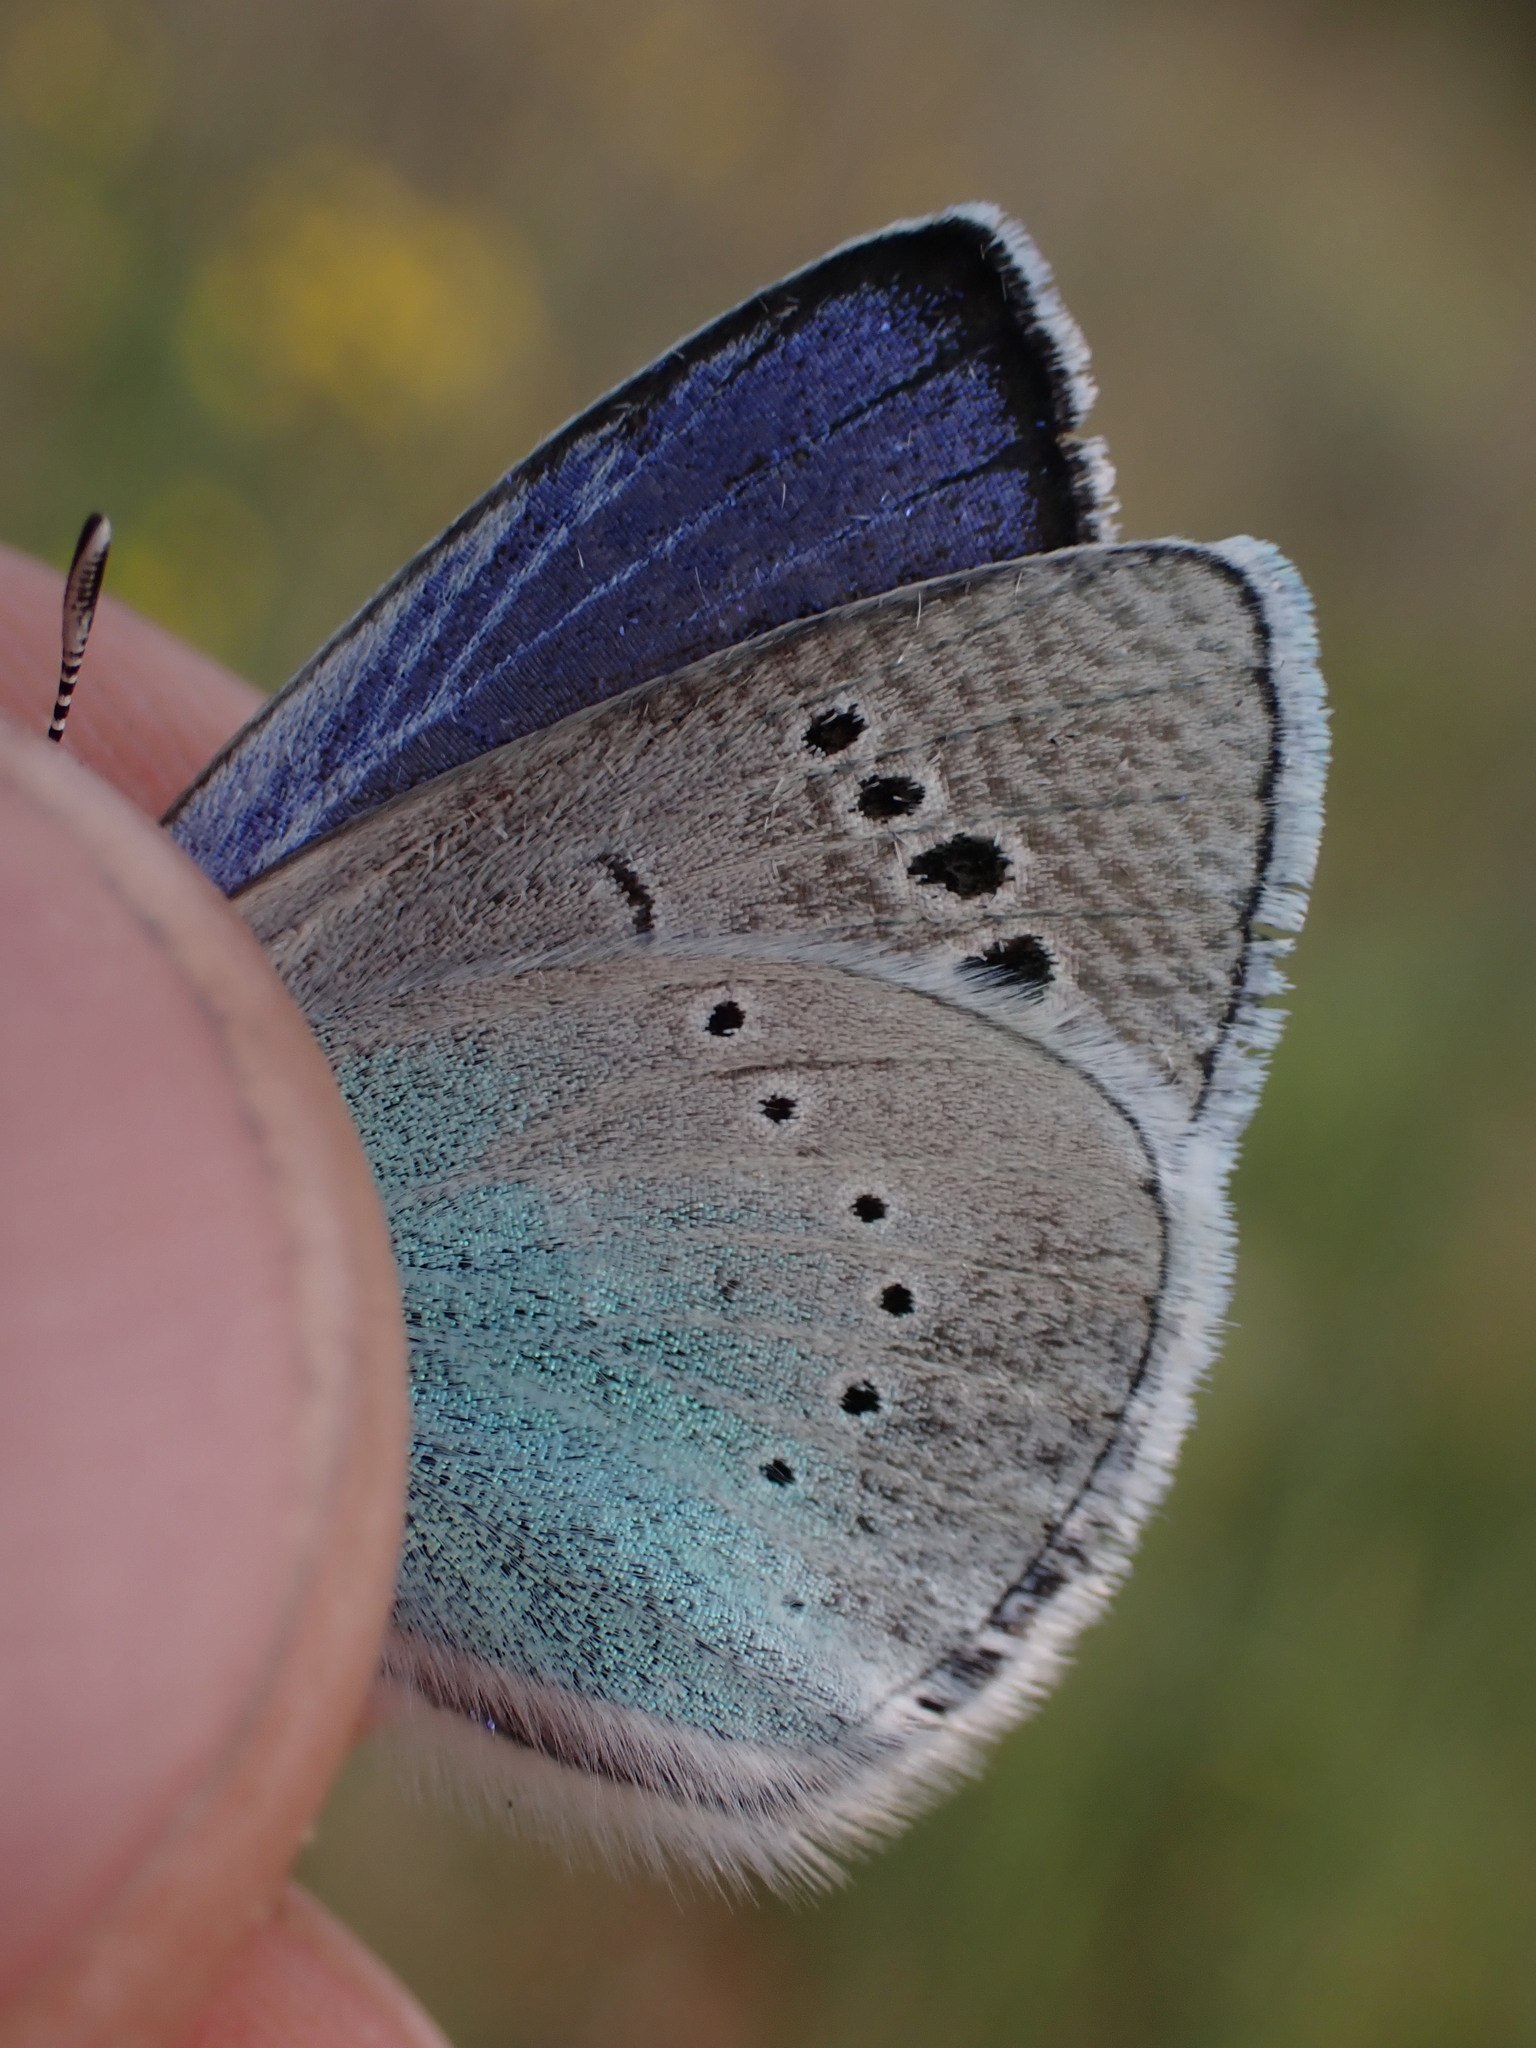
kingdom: Animalia
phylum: Arthropoda
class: Insecta
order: Lepidoptera
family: Lycaenidae
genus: Glaucopsyche
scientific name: Glaucopsyche alexis
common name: Green-underside blue
